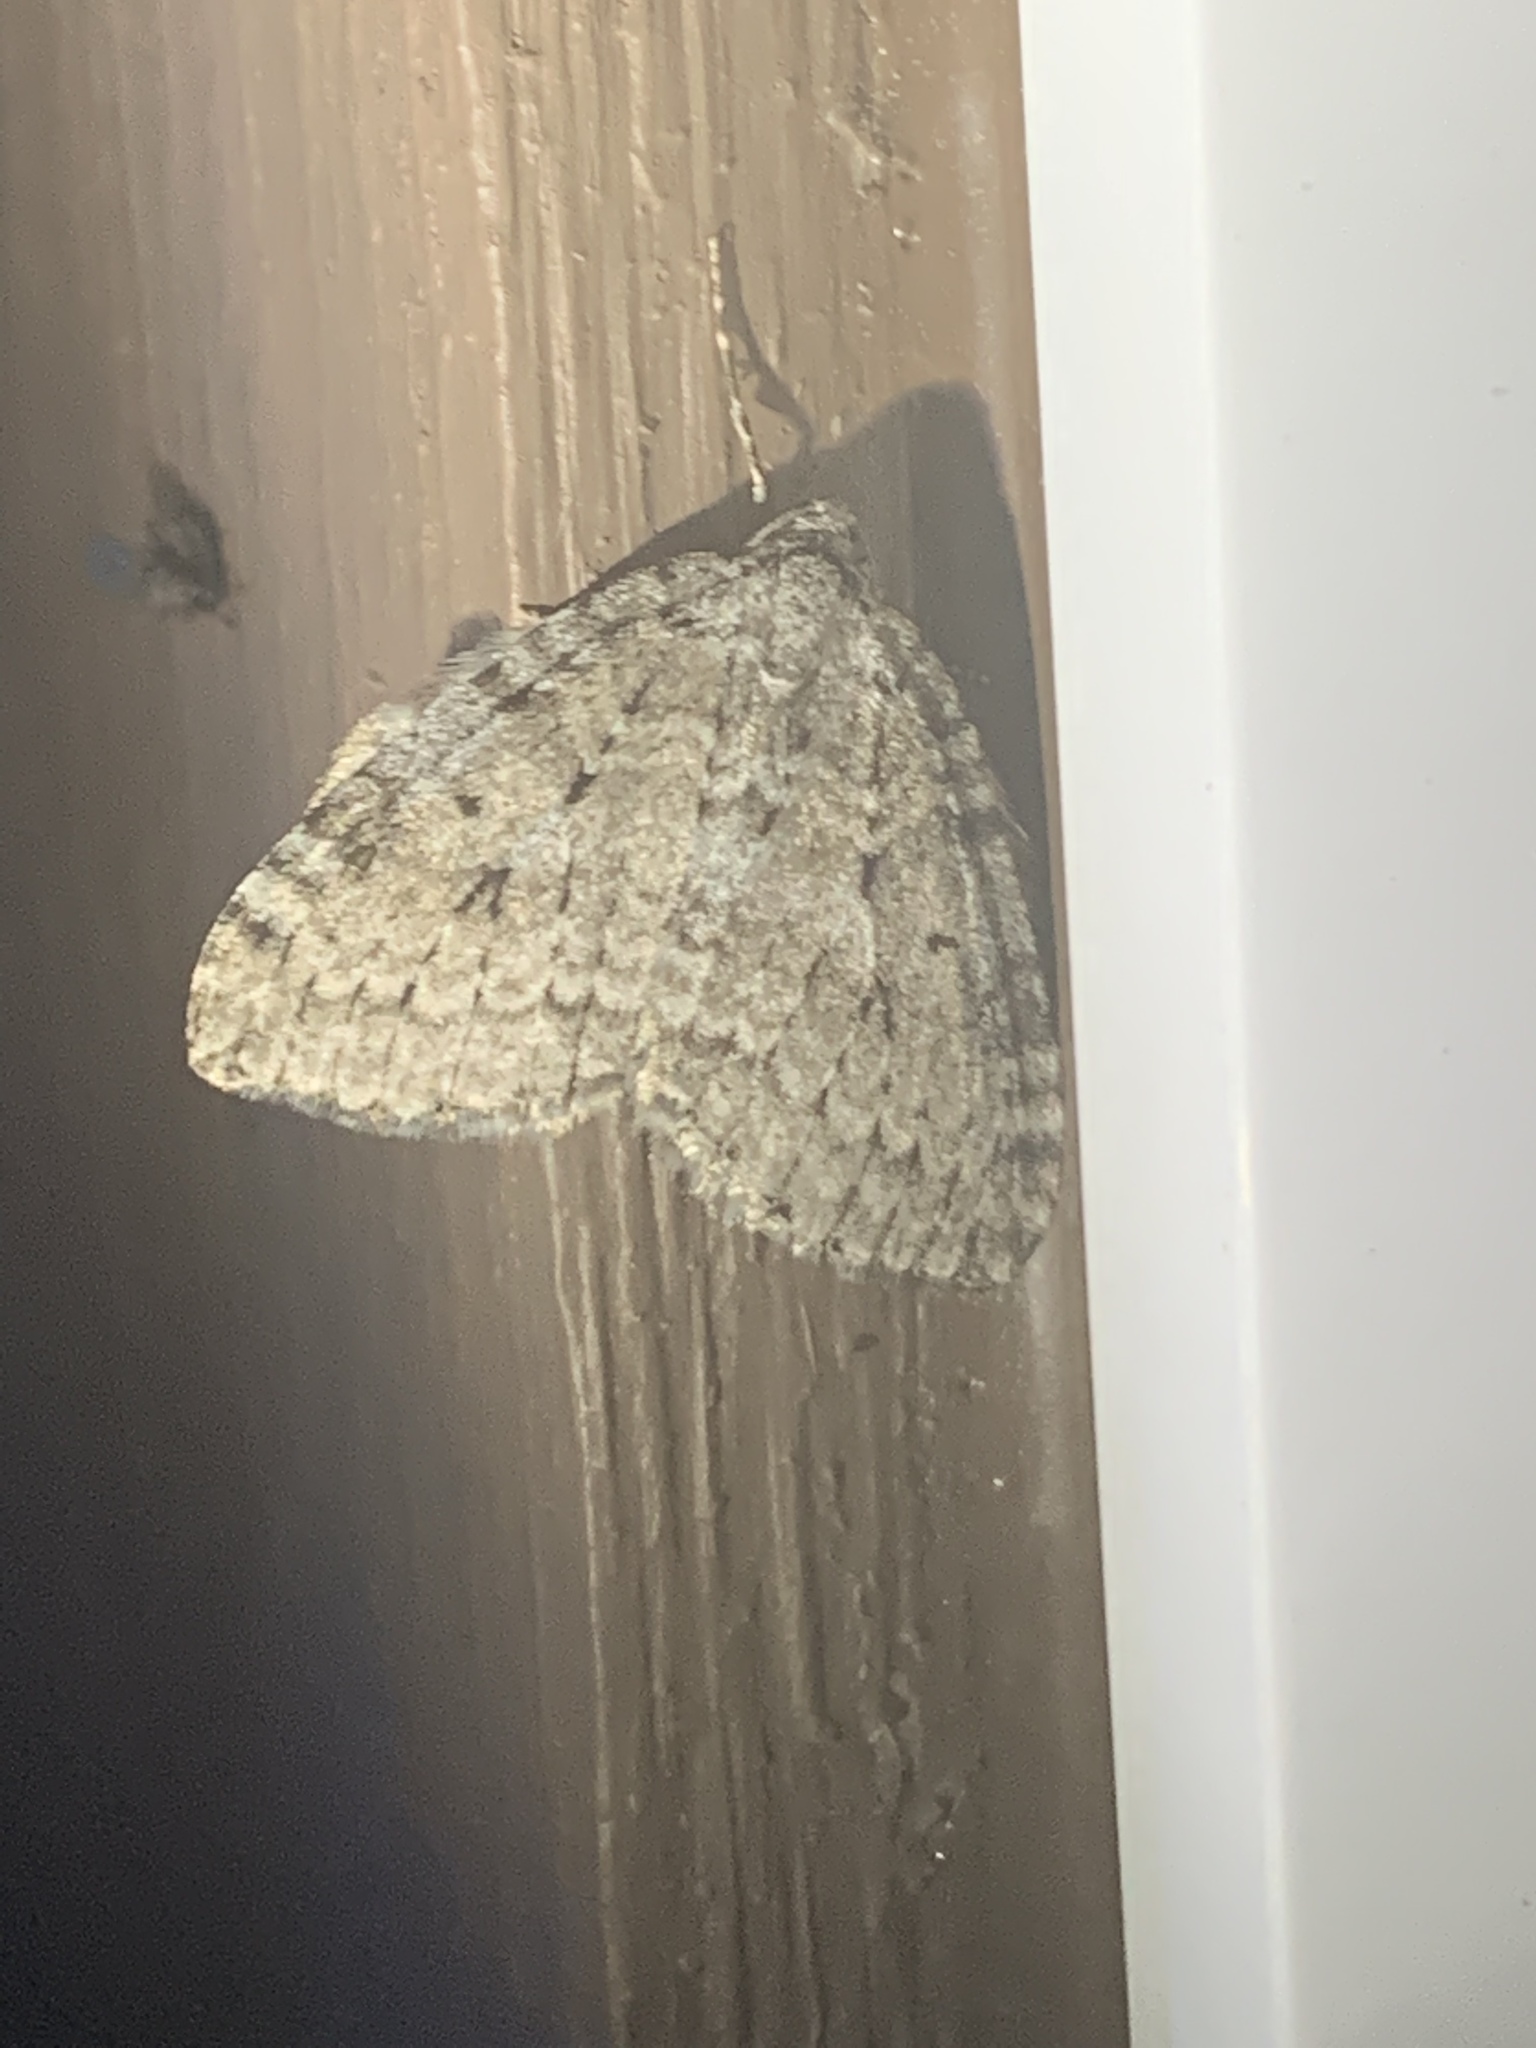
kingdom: Animalia
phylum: Arthropoda
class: Insecta
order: Lepidoptera
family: Geometridae
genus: Epirrita
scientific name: Epirrita autumnata
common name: Autumnal moth
